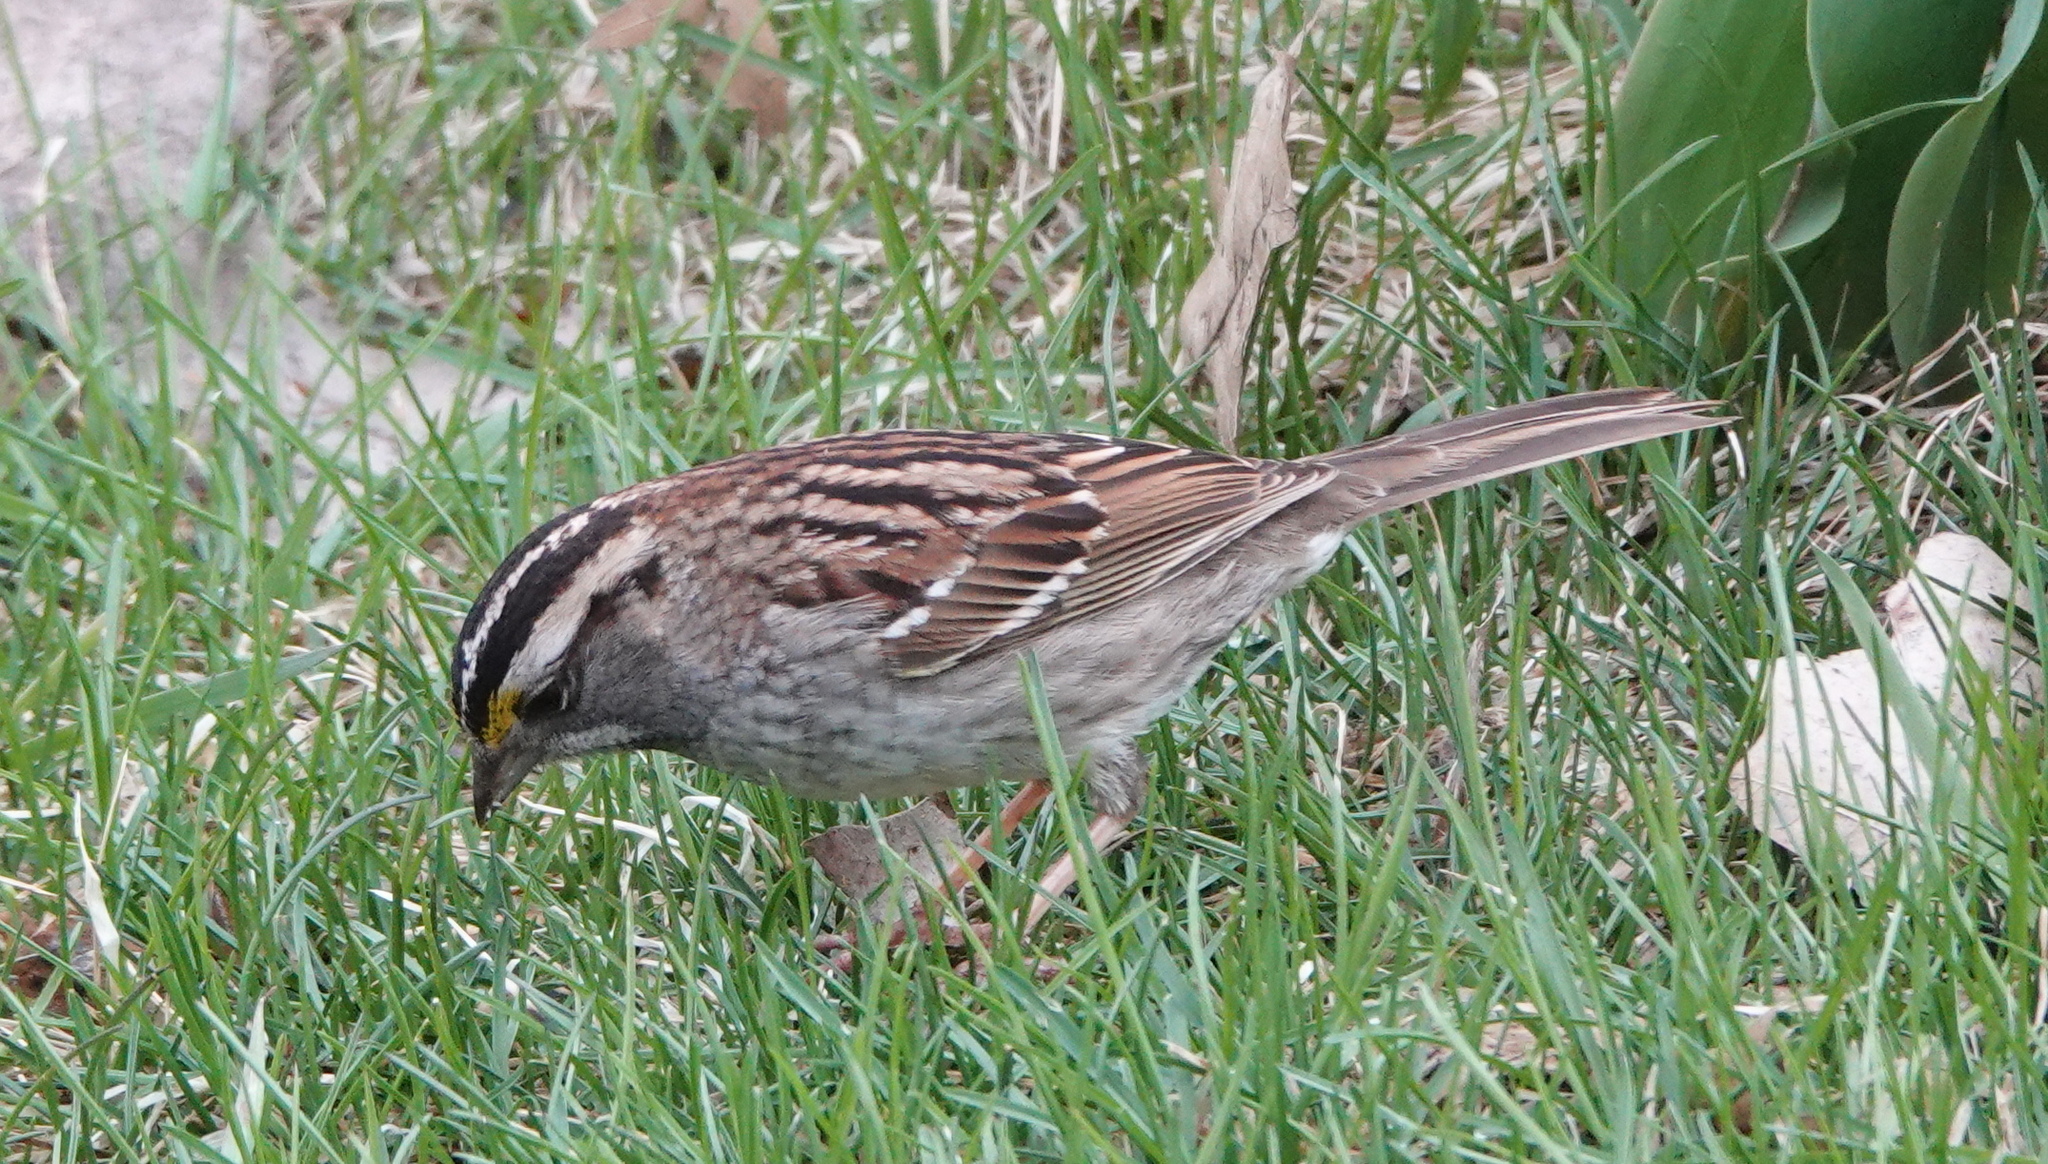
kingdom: Animalia
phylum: Chordata
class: Aves
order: Passeriformes
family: Passerellidae
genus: Zonotrichia
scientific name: Zonotrichia albicollis
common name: White-throated sparrow
